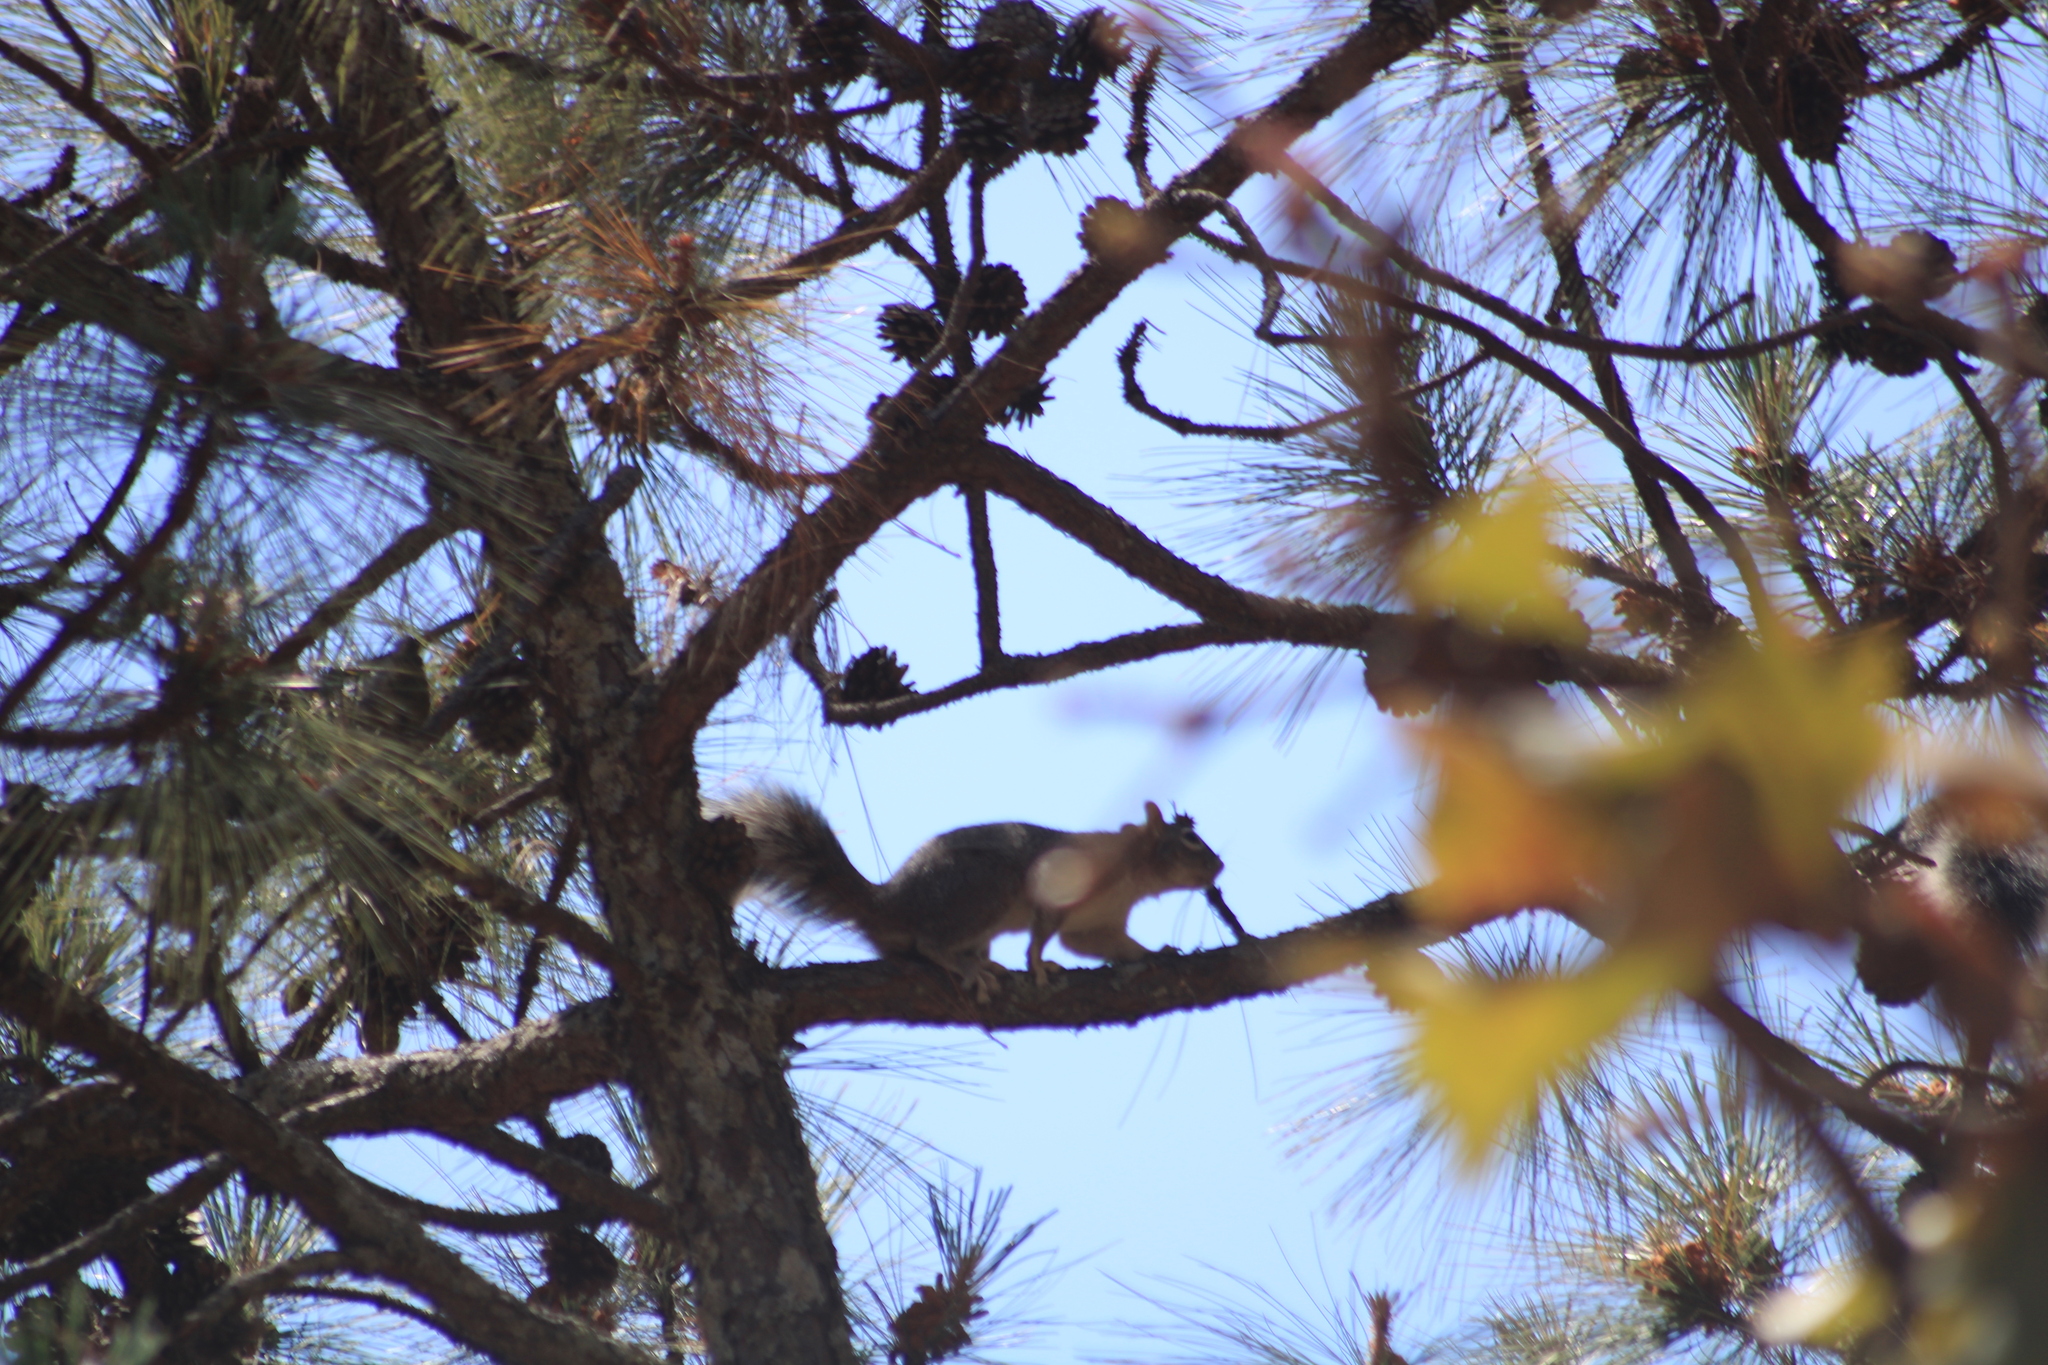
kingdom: Animalia
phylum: Chordata
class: Mammalia
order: Rodentia
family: Sciuridae
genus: Sciurus
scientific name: Sciurus nayaritensis
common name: Mexican fox squirrel
